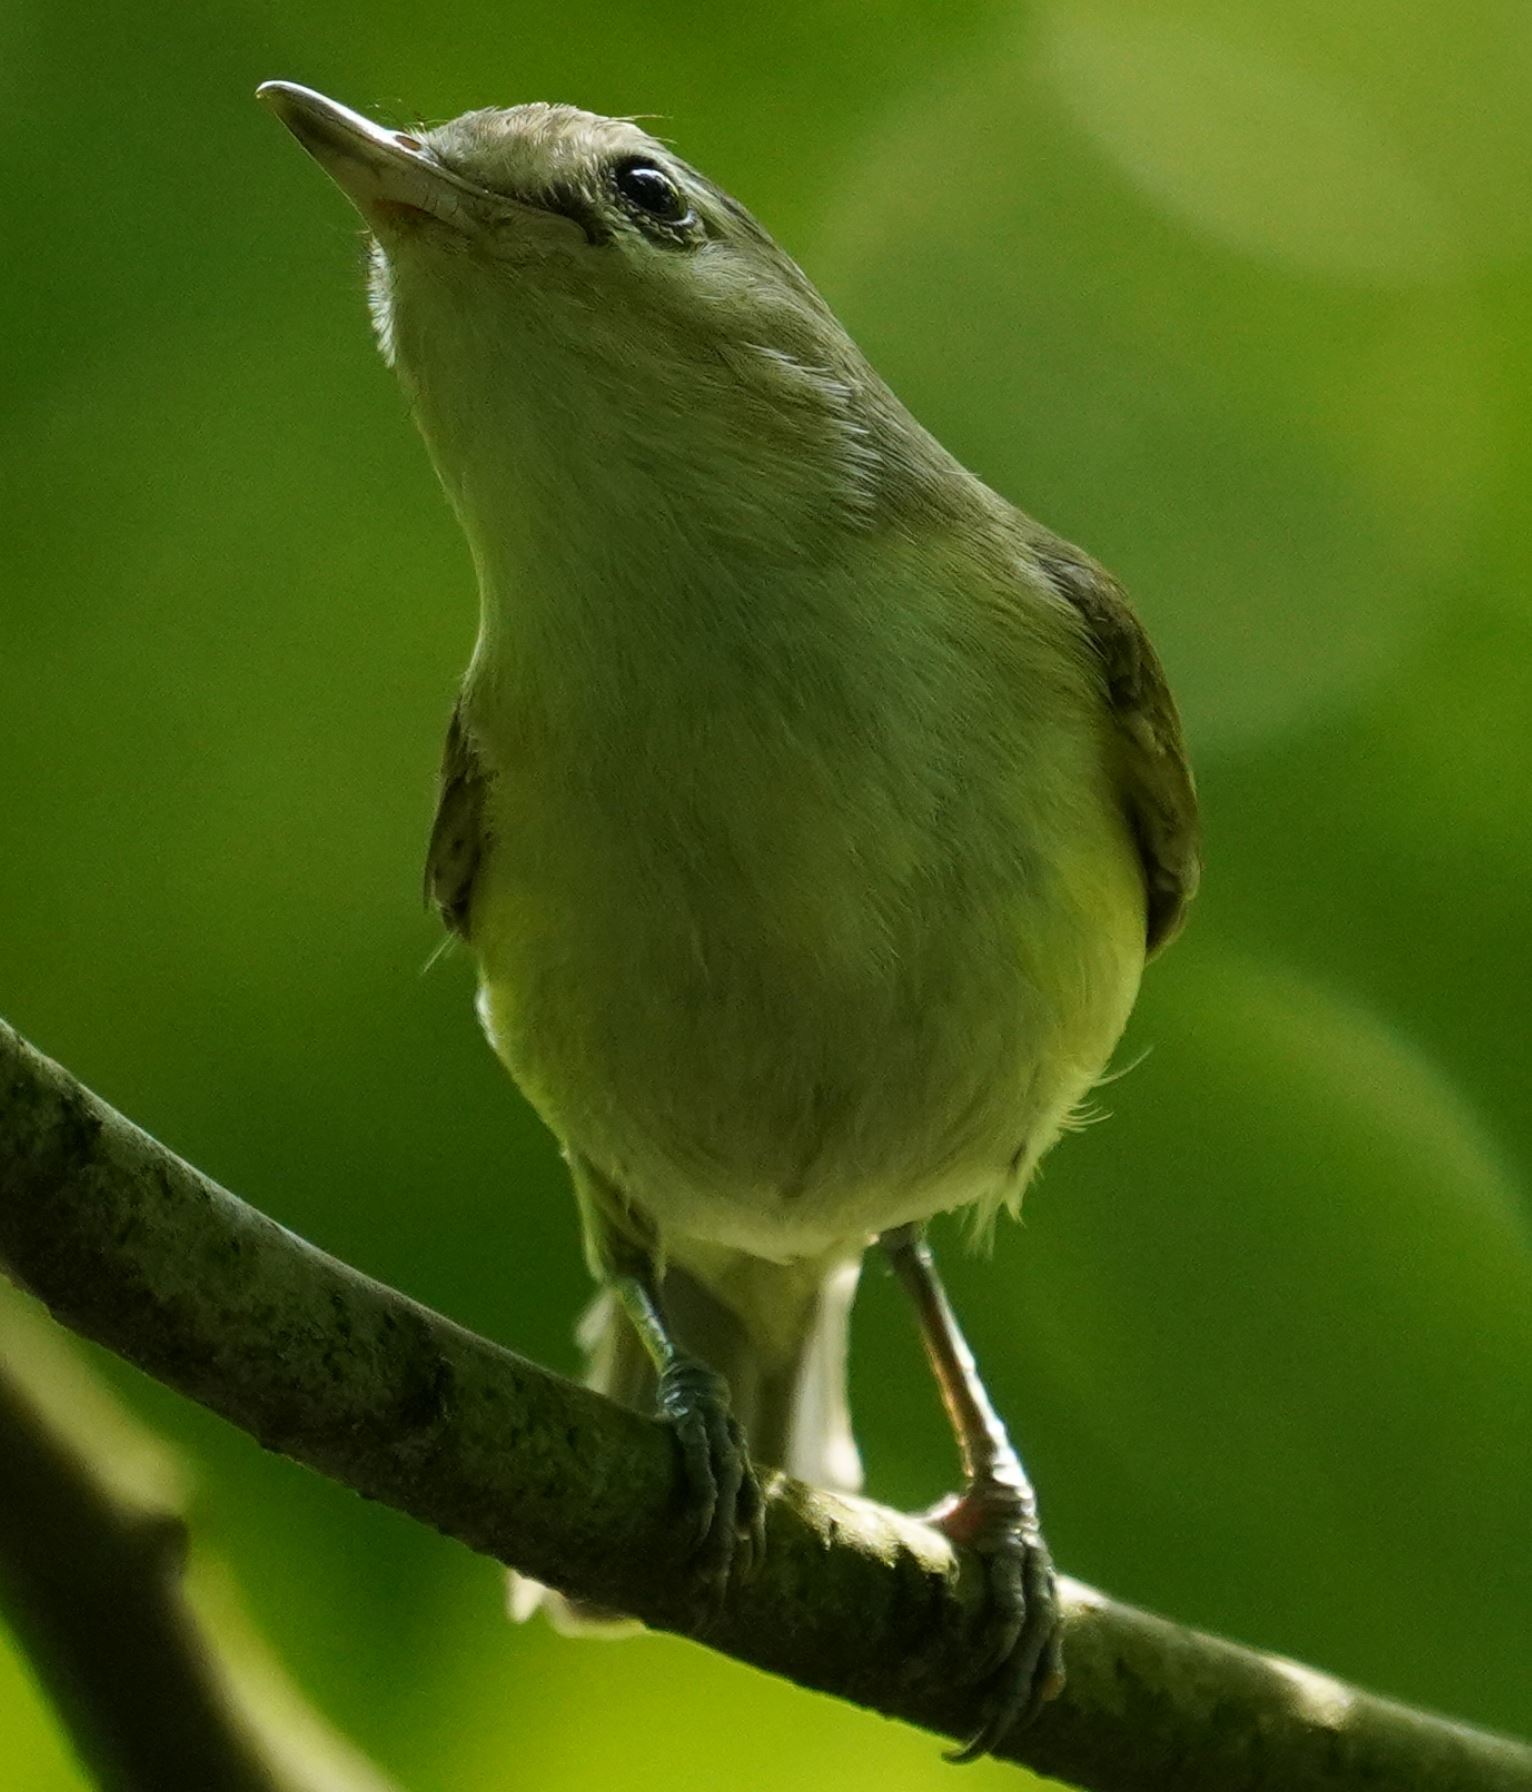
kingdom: Animalia
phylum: Chordata
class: Aves
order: Passeriformes
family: Vireonidae
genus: Vireo
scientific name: Vireo gilvus
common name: Warbling vireo
